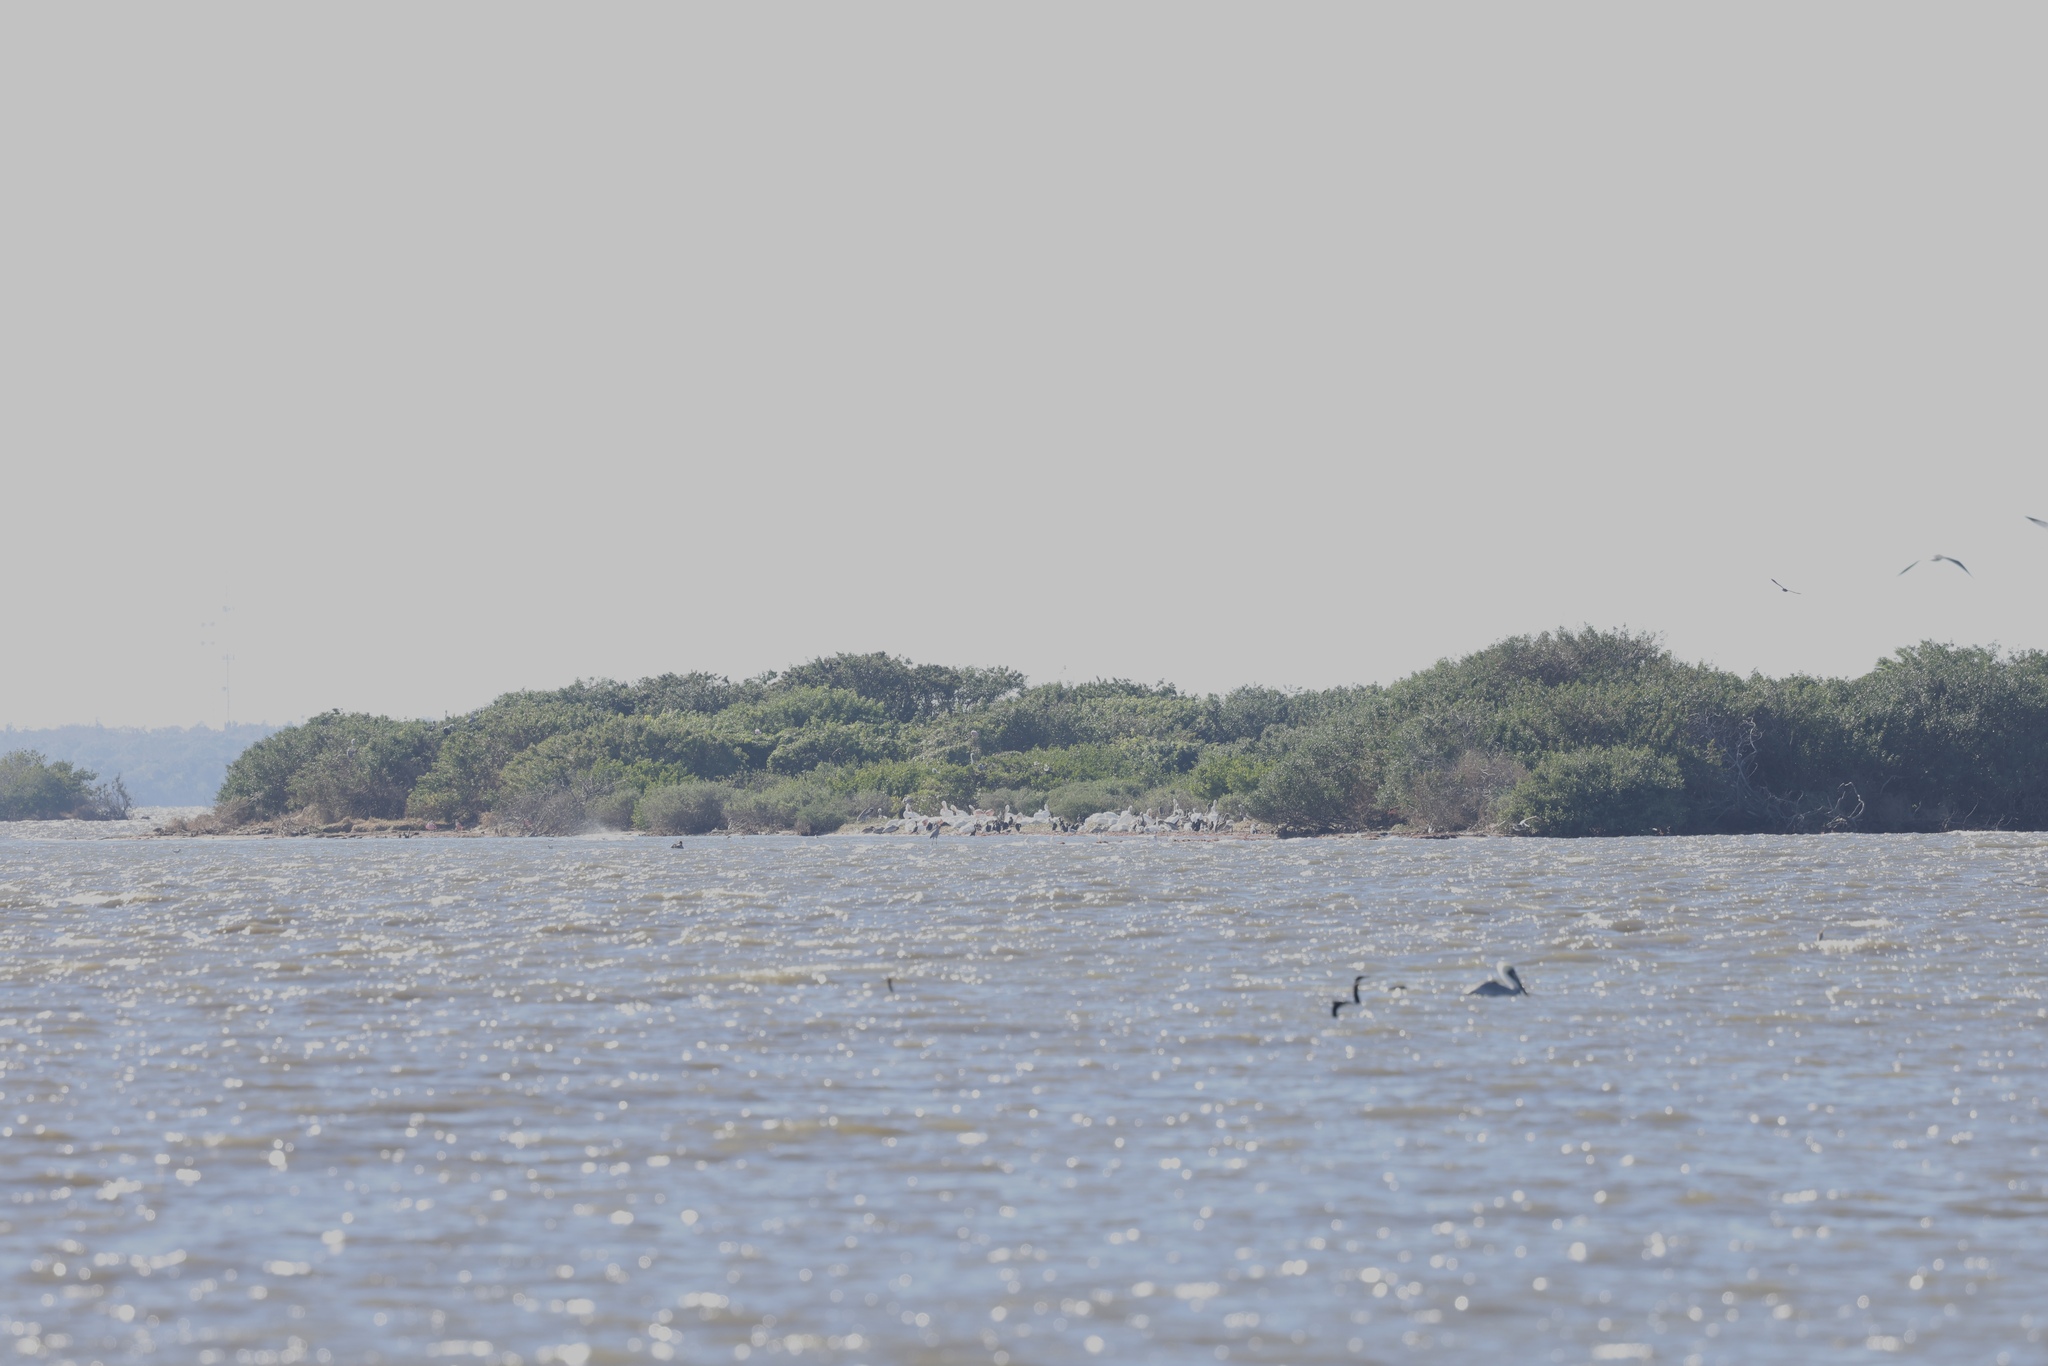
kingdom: Animalia
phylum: Chordata
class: Aves
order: Phoenicopteriformes
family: Phoenicopteridae
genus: Phoenicopterus
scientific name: Phoenicopterus ruber
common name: American flamingo
